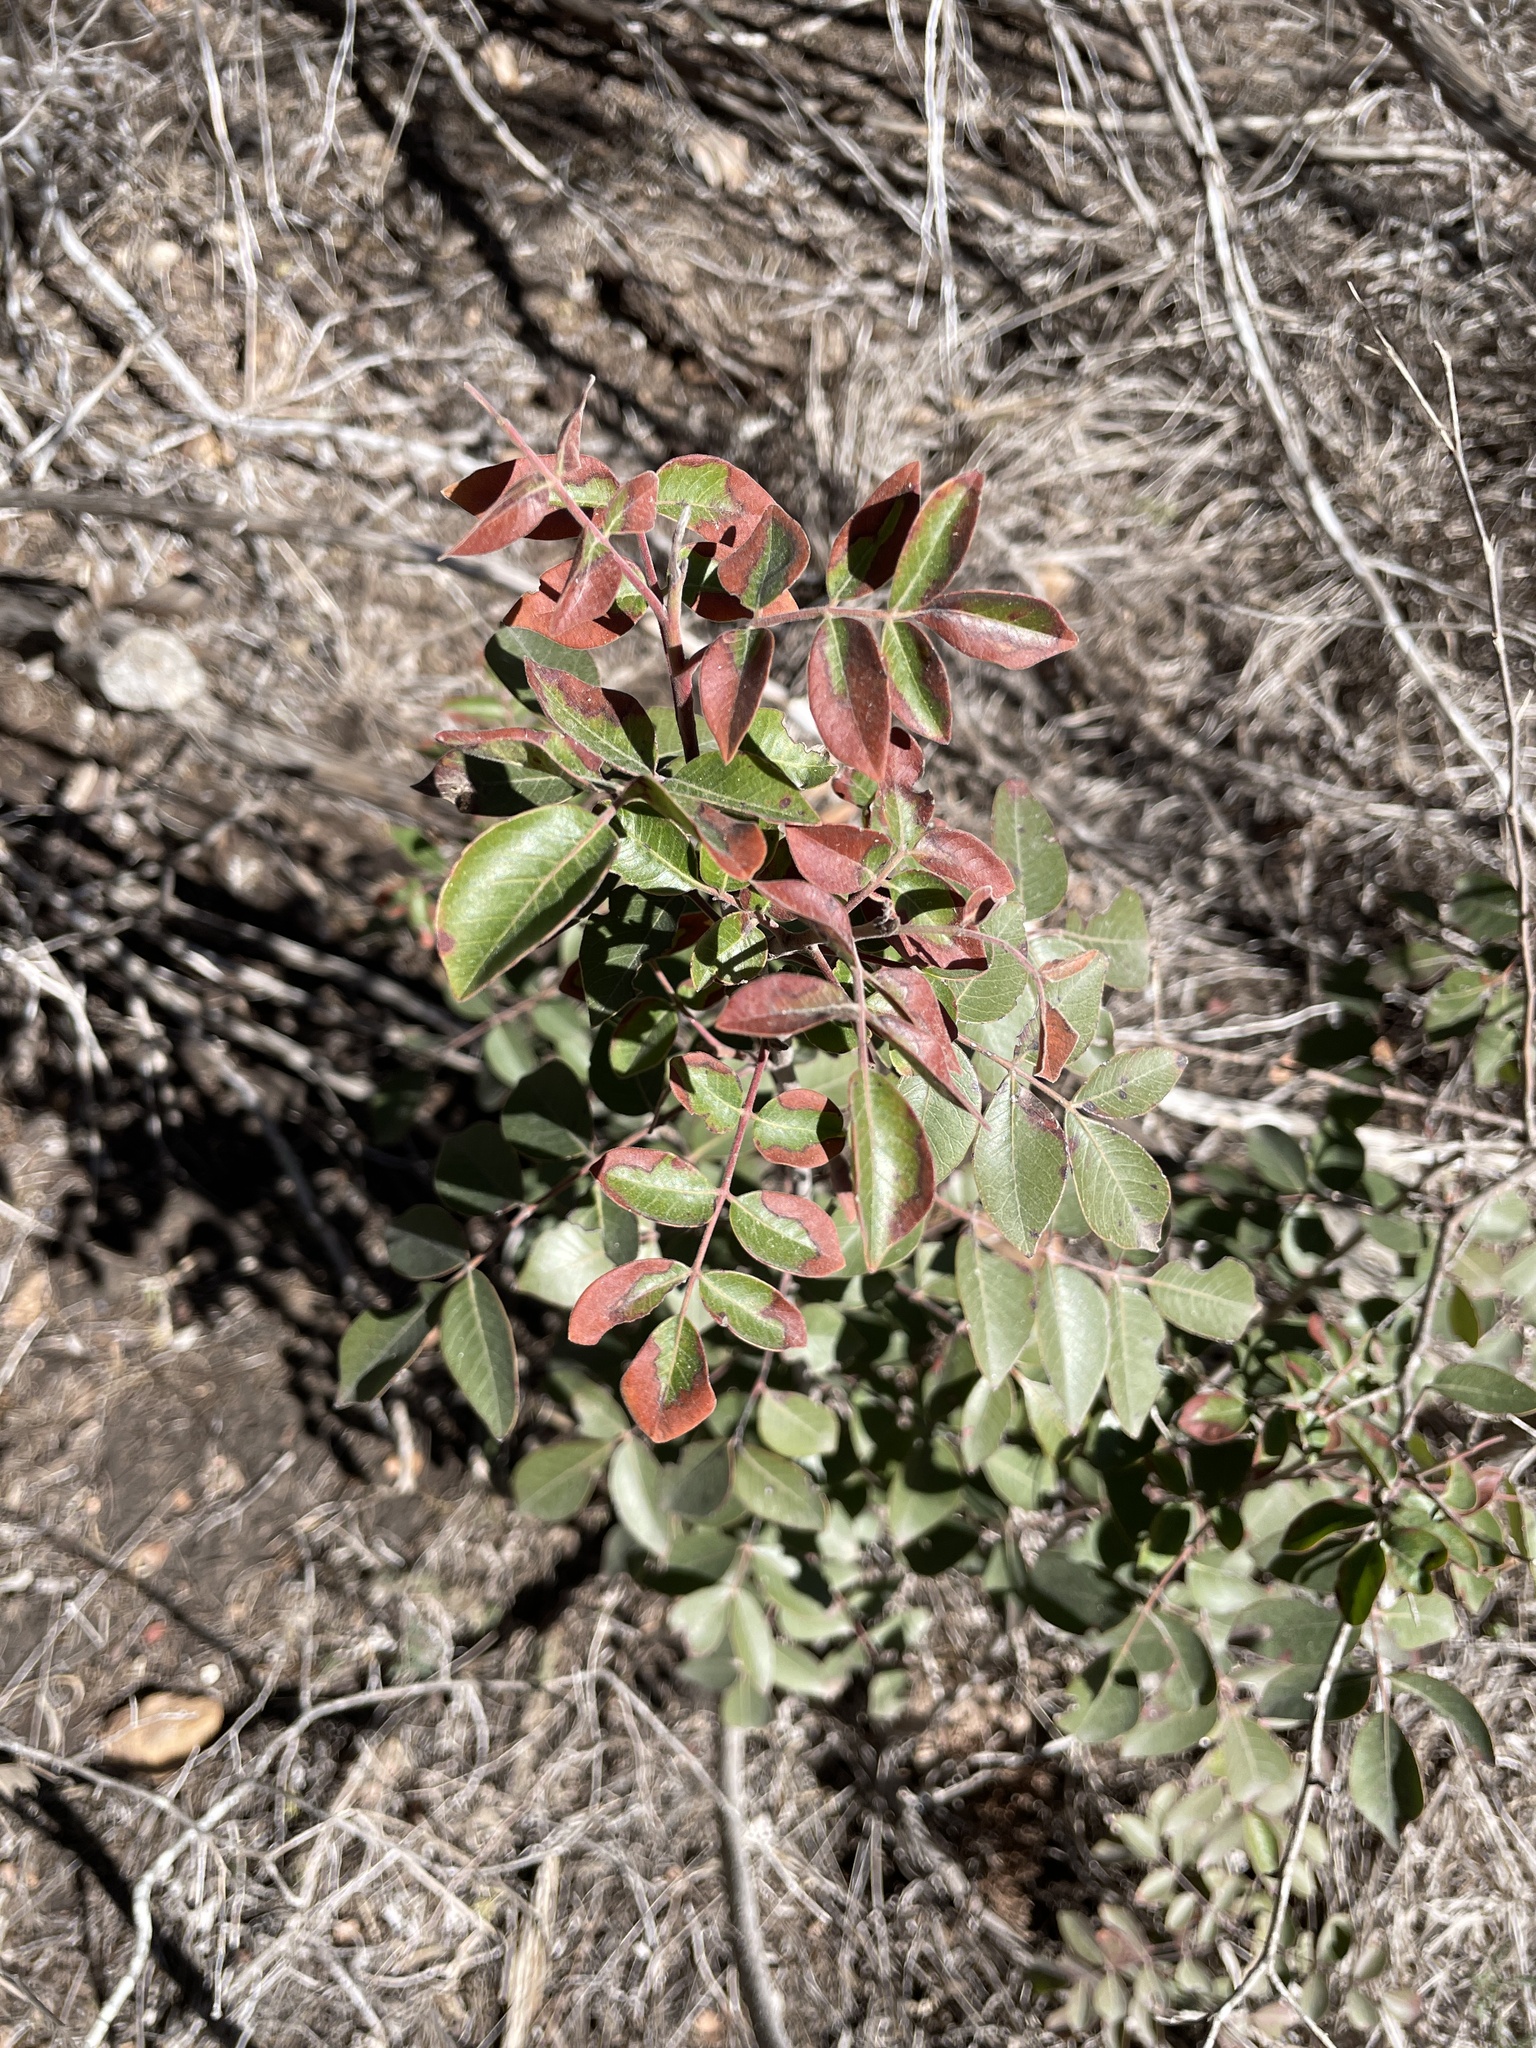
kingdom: Plantae
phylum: Tracheophyta
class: Magnoliopsida
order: Sapindales
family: Anacardiaceae
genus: Rhus
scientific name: Rhus virens
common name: Evergreen sumac
